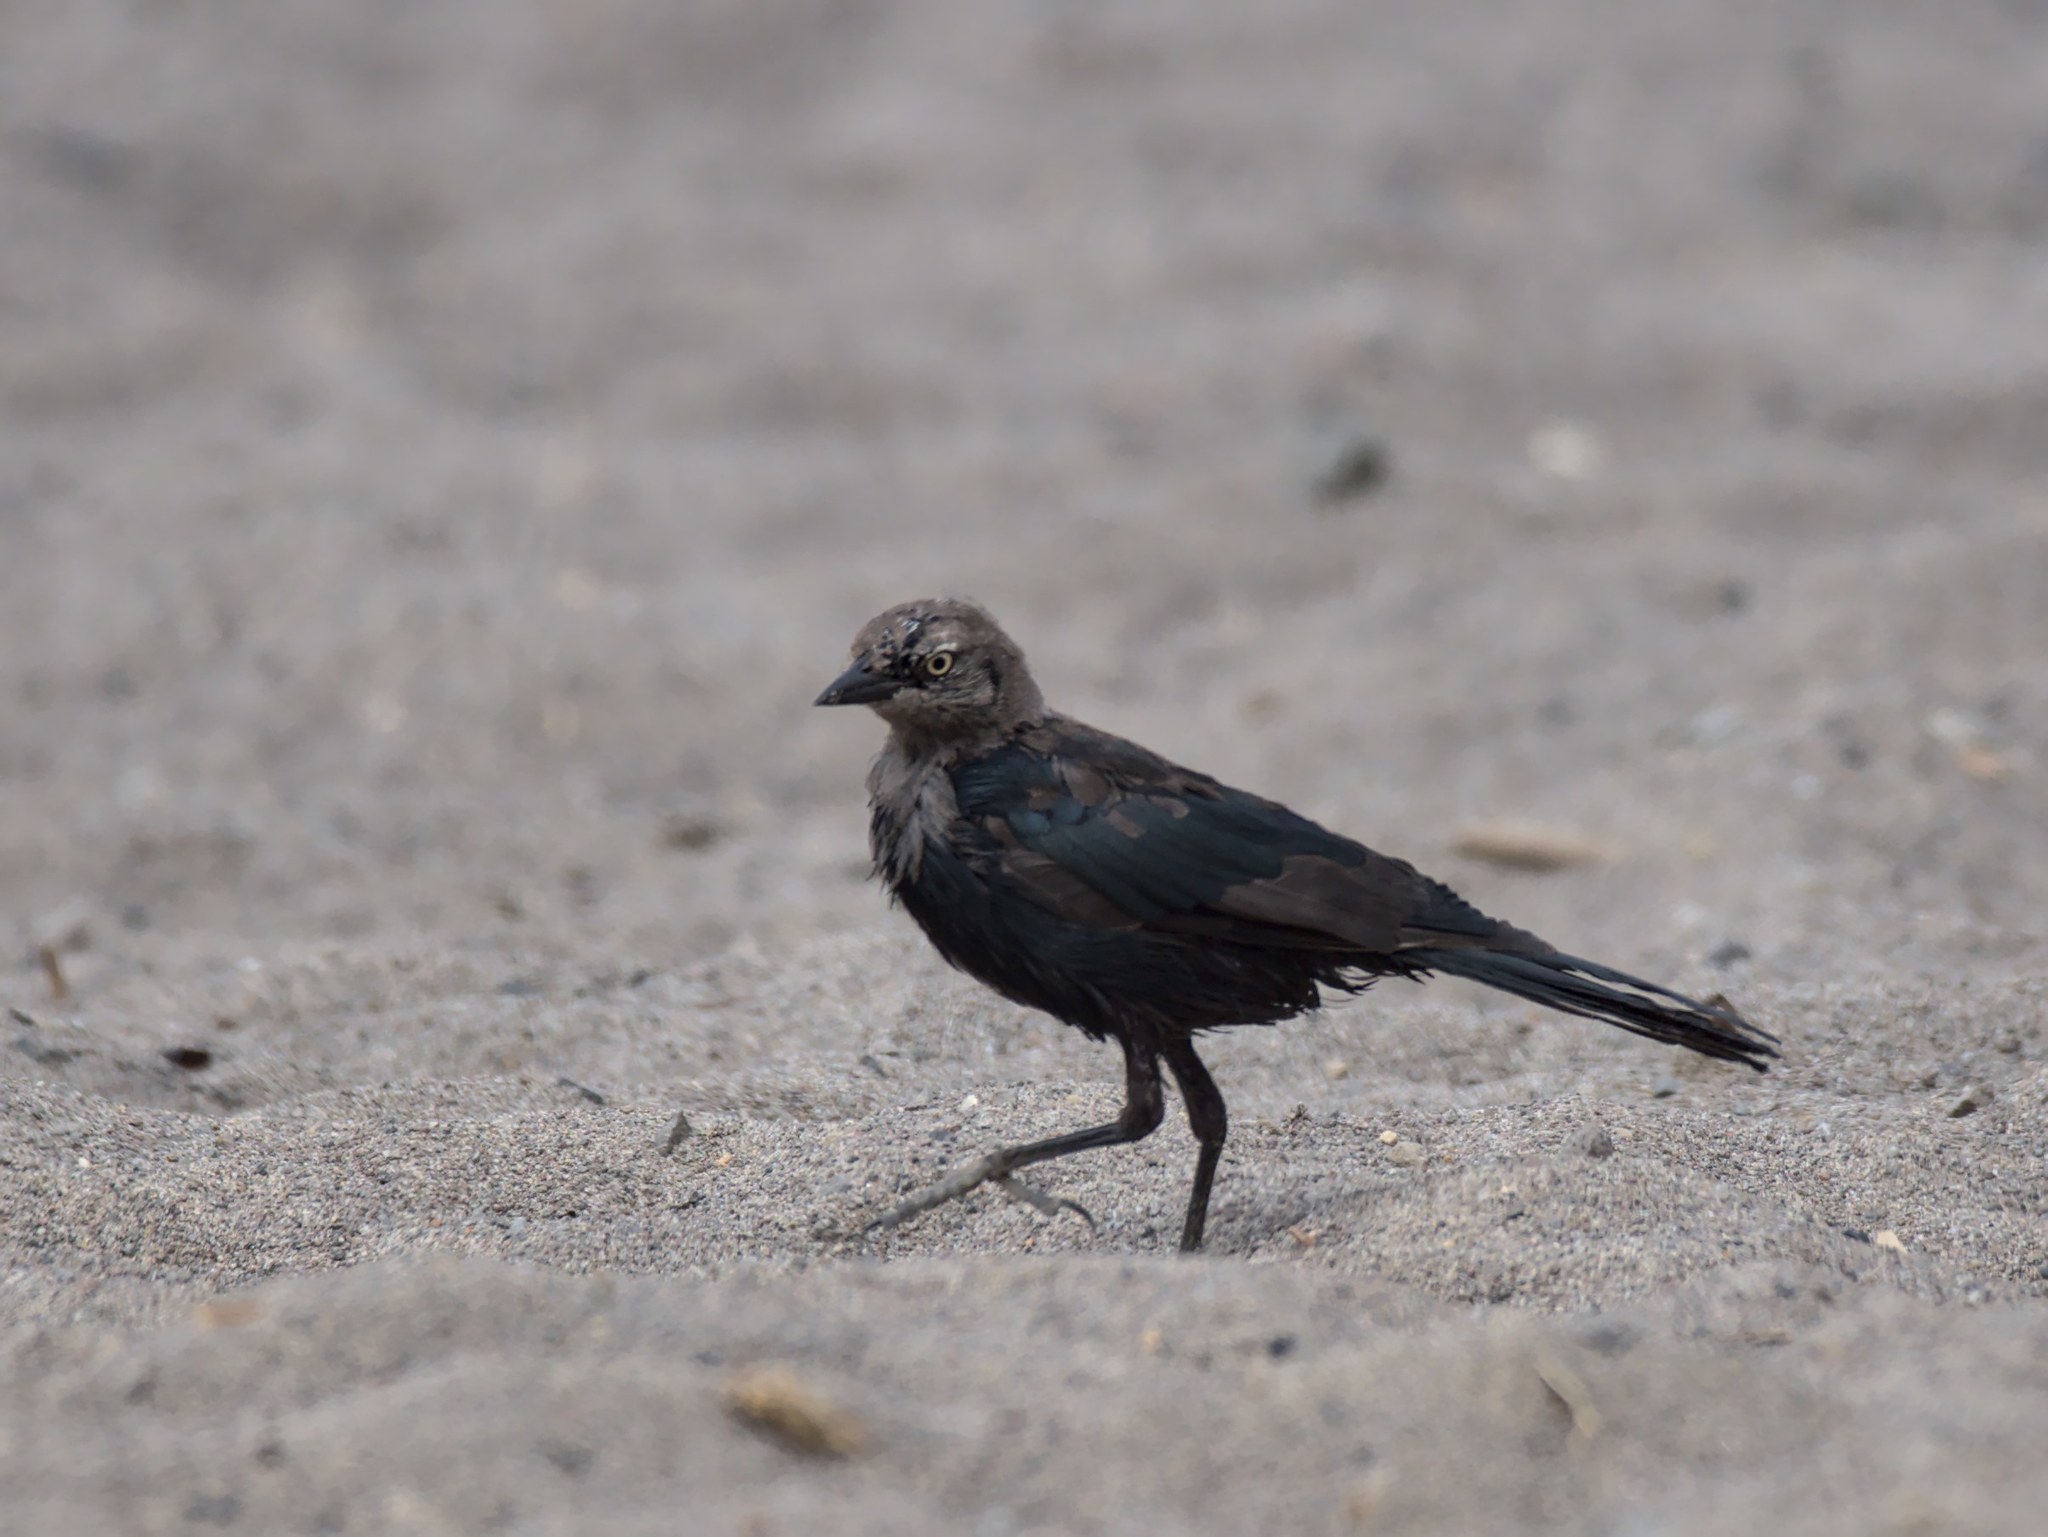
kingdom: Animalia
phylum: Chordata
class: Aves
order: Passeriformes
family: Icteridae
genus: Euphagus
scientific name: Euphagus cyanocephalus
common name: Brewer's blackbird
